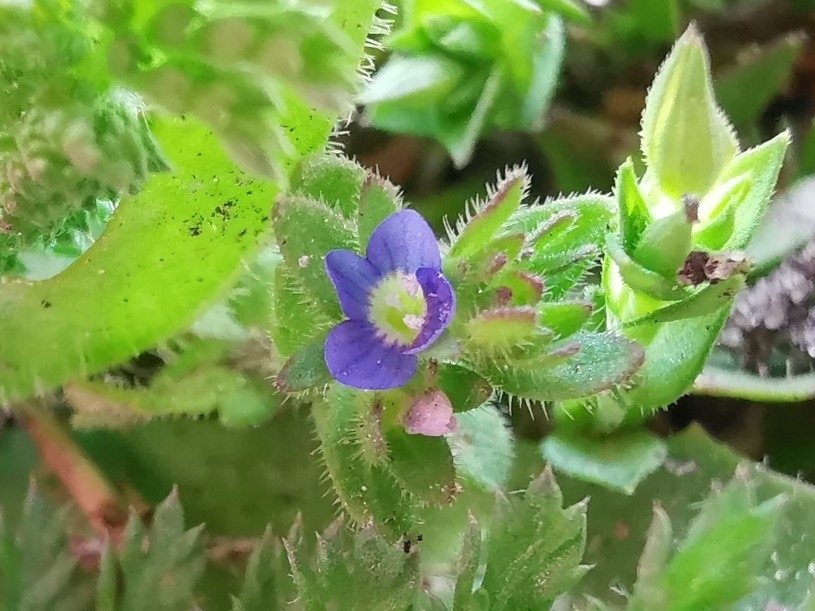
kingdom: Plantae
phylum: Tracheophyta
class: Magnoliopsida
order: Lamiales
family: Plantaginaceae
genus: Veronica
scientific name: Veronica arvensis
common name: Corn speedwell
